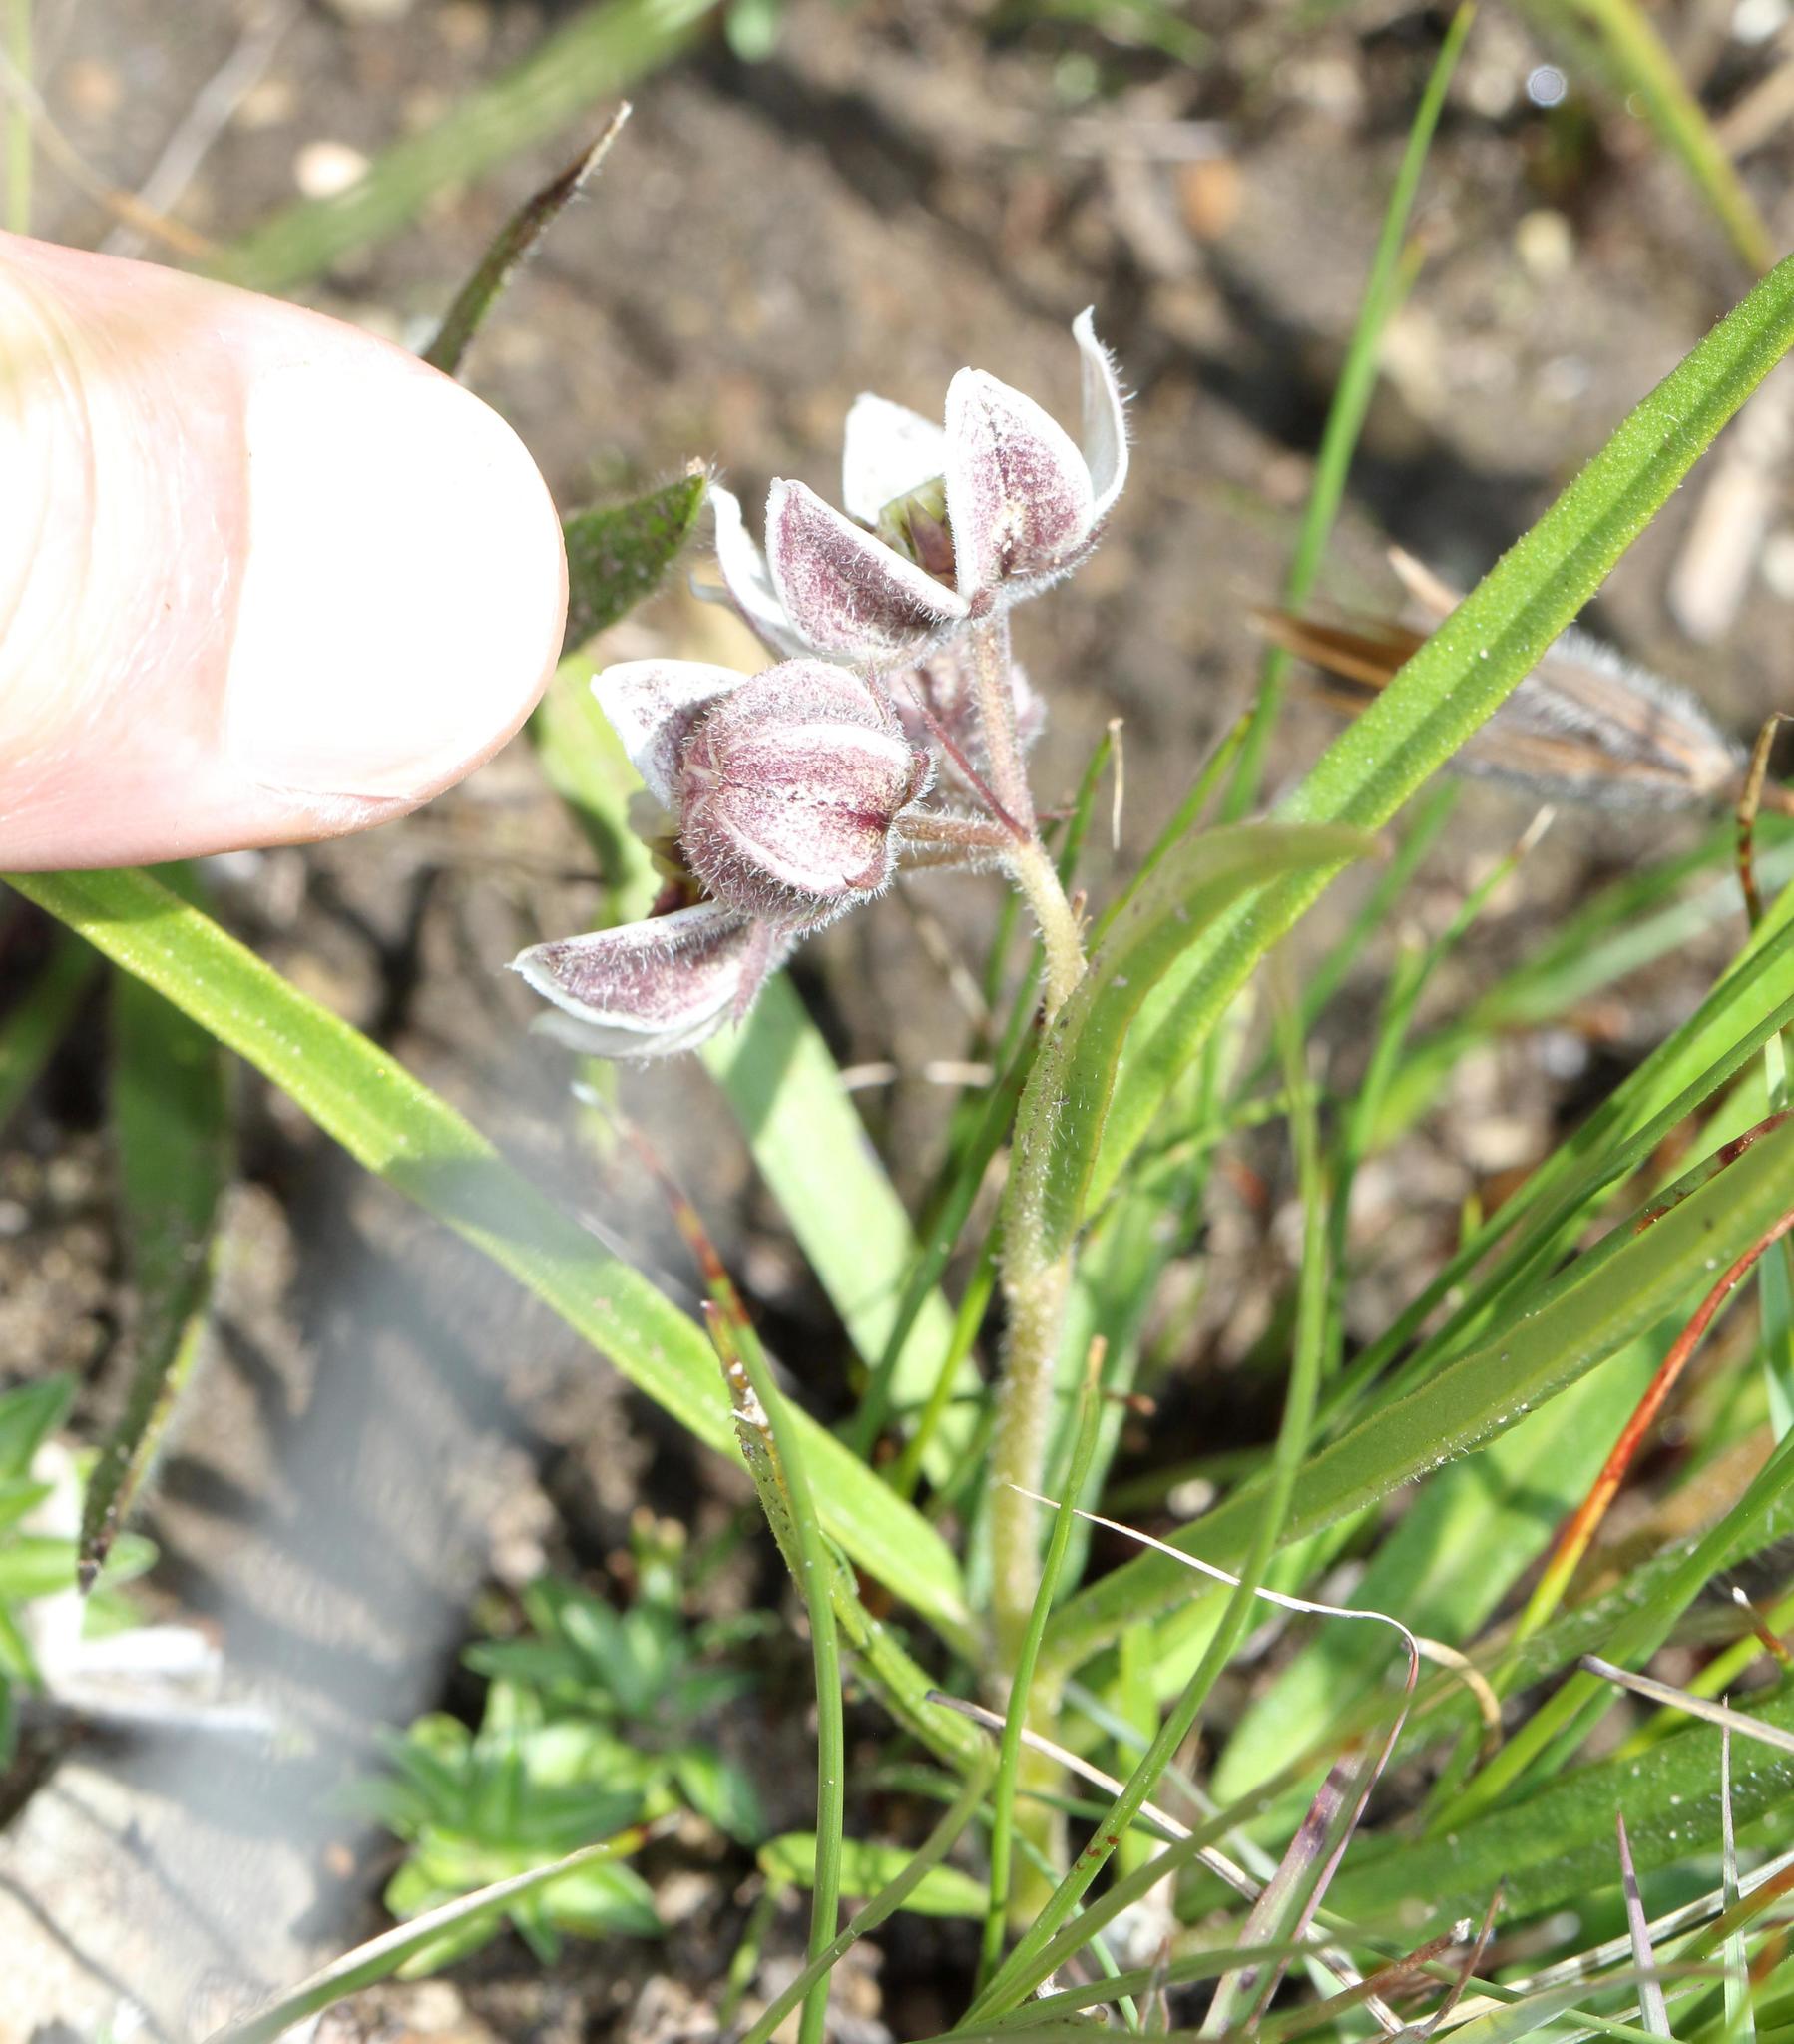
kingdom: Plantae
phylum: Tracheophyta
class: Magnoliopsida
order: Gentianales
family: Apocynaceae
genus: Asclepias
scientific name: Asclepias oreophila
